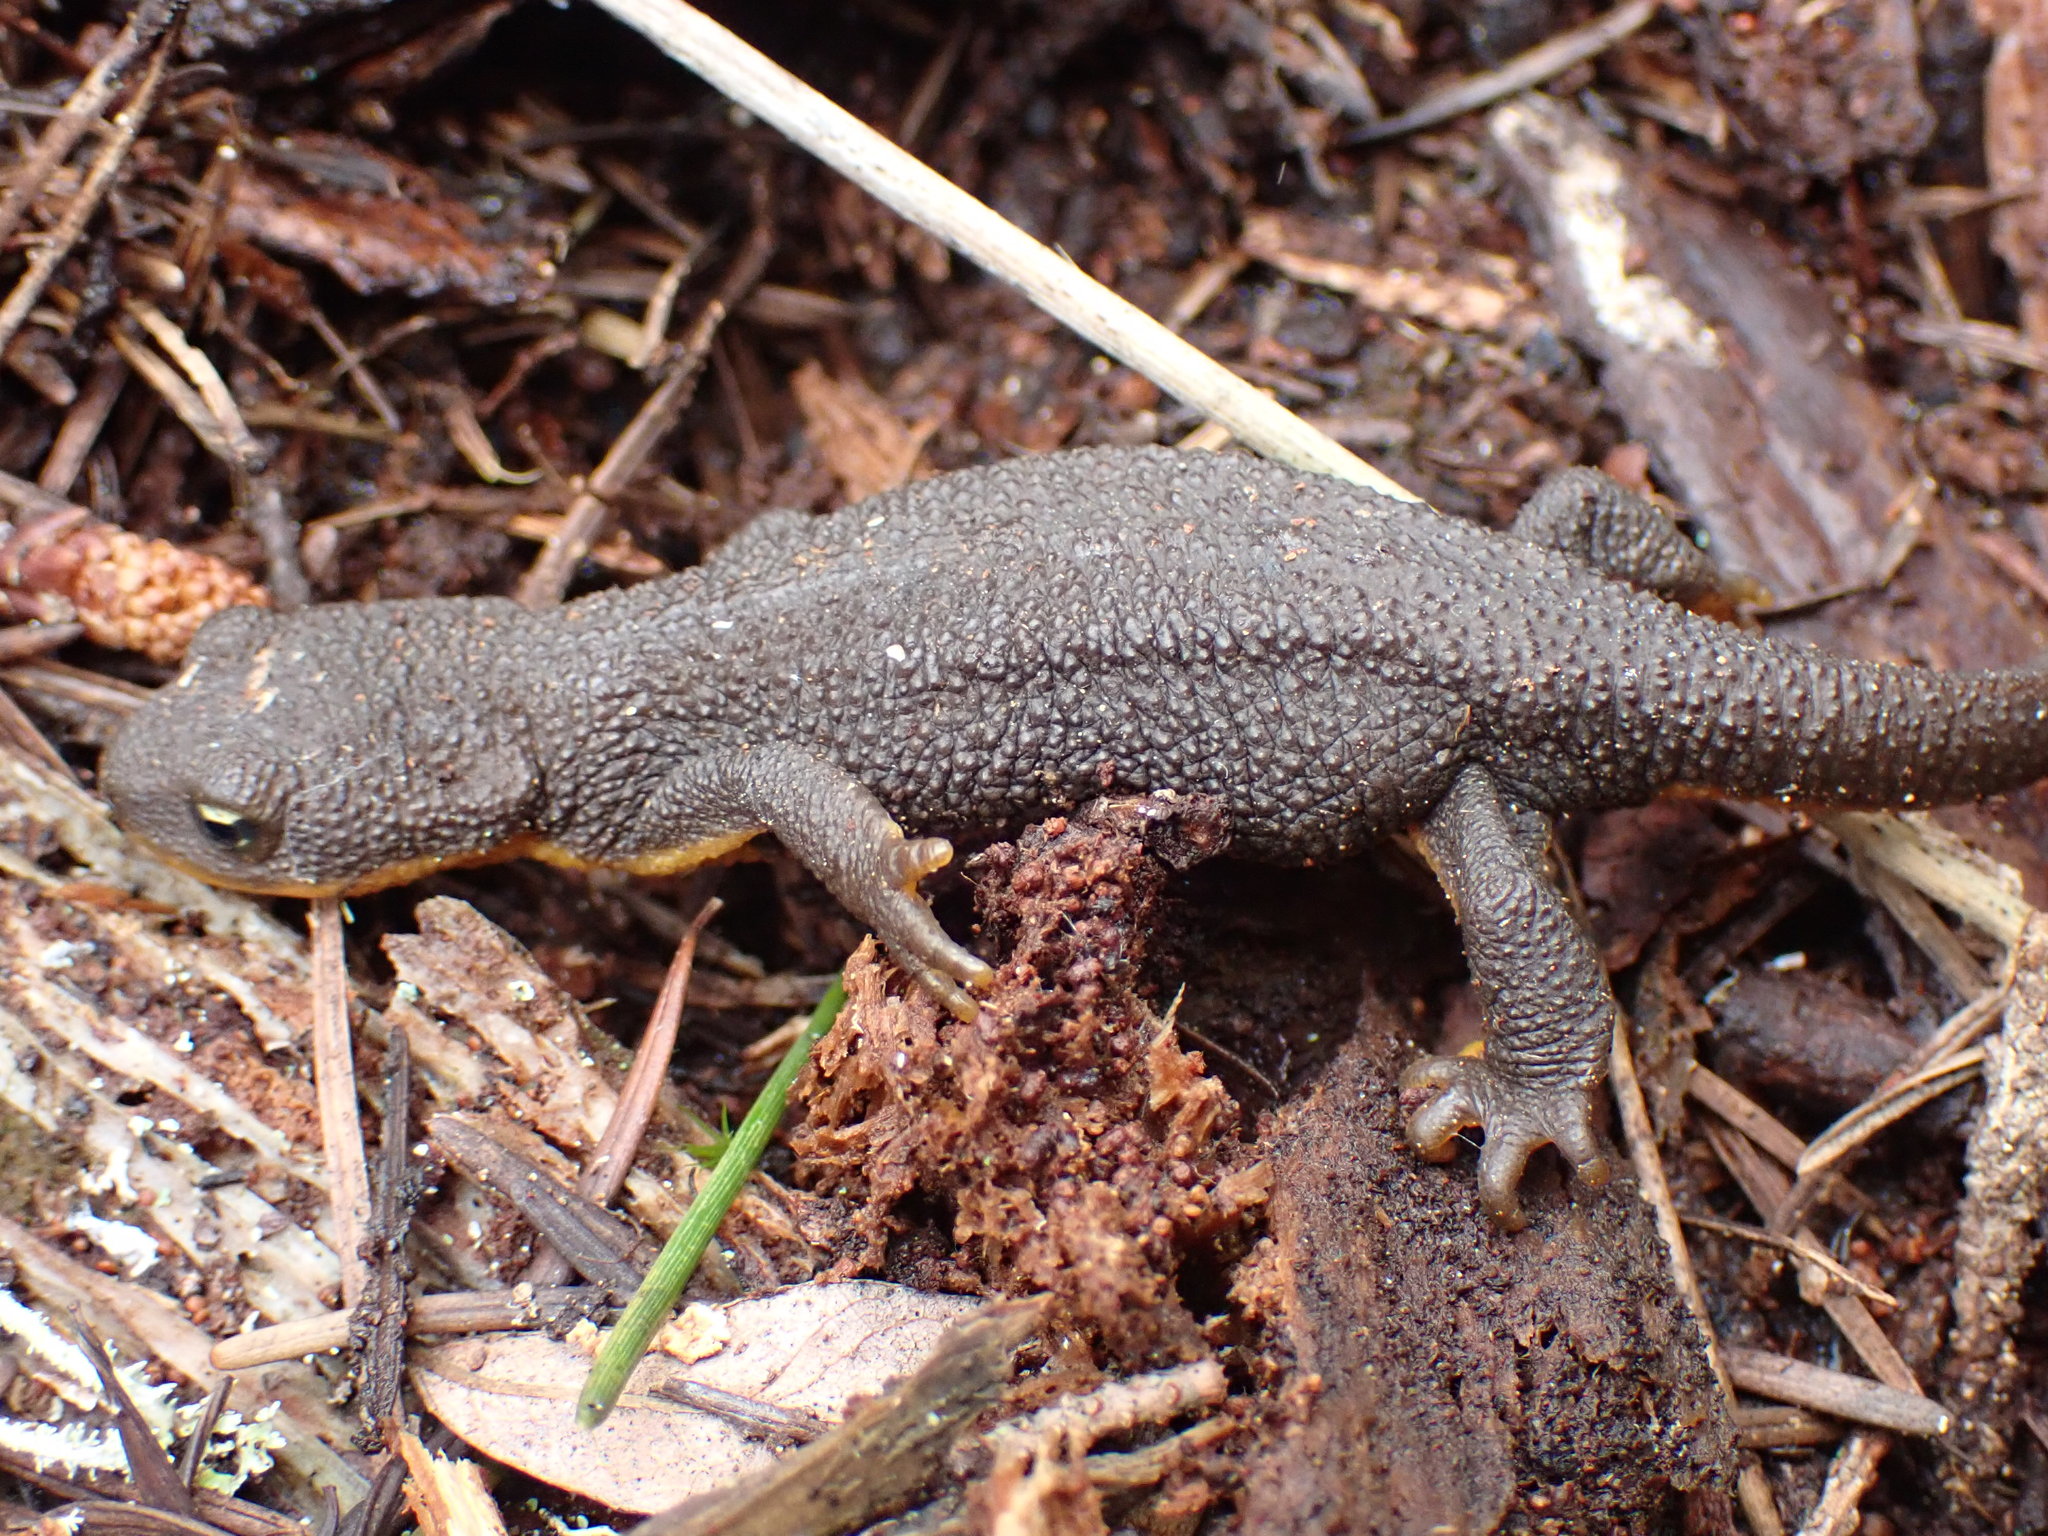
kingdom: Animalia
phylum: Chordata
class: Amphibia
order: Caudata
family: Salamandridae
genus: Taricha
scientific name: Taricha granulosa
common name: Roughskin newt
